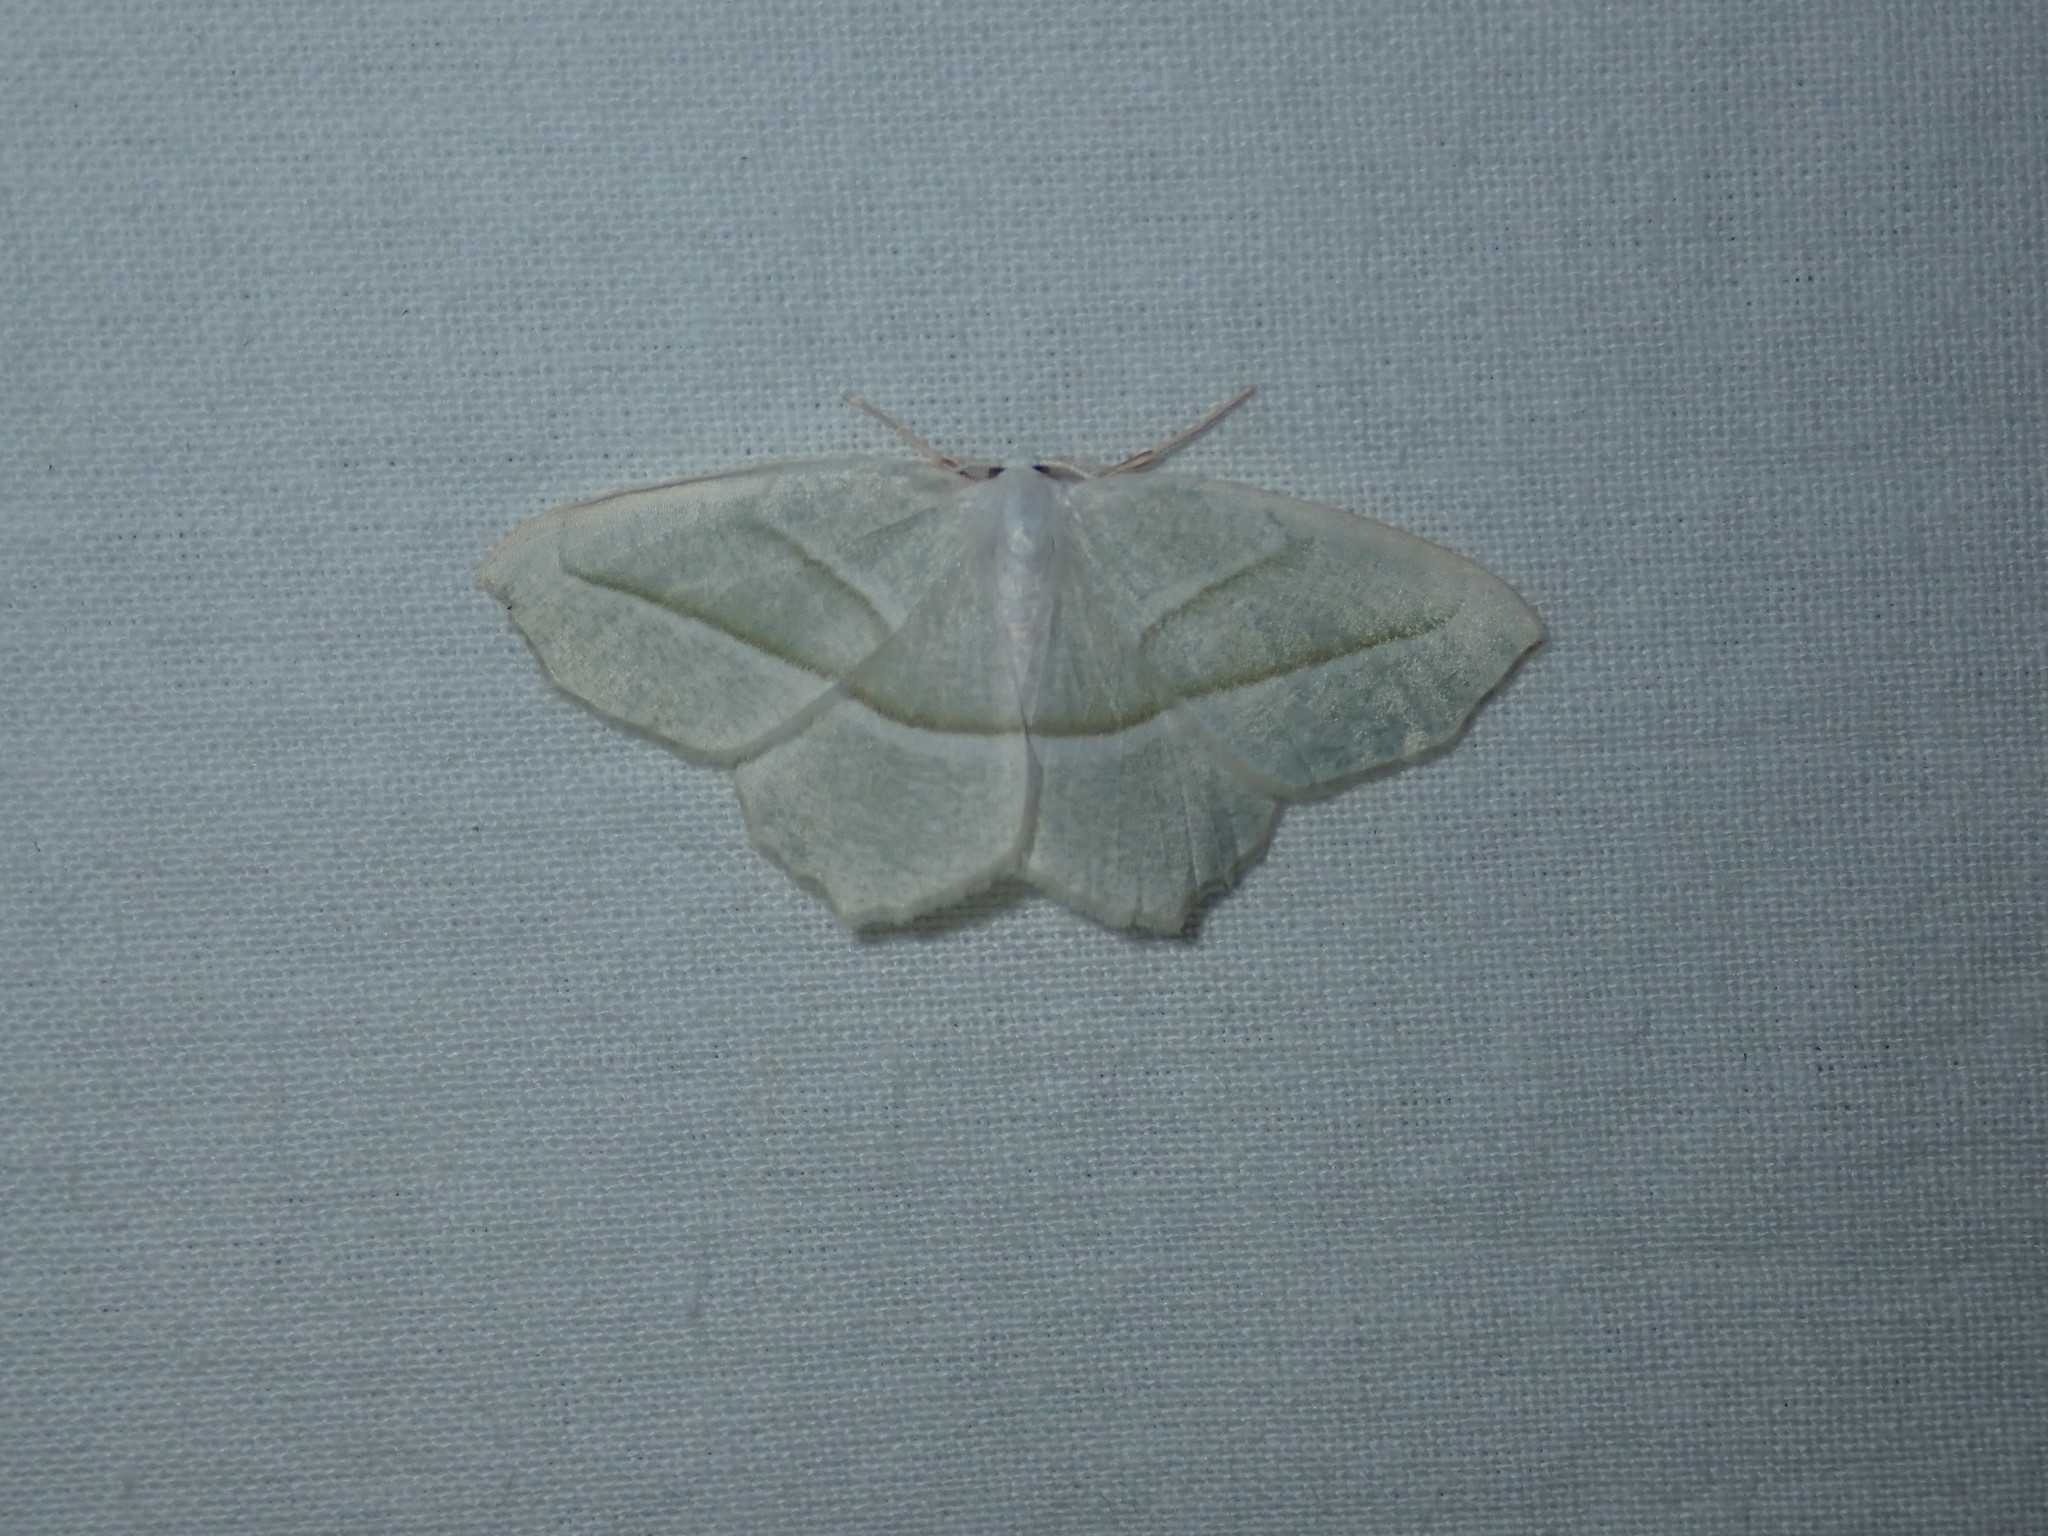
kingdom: Animalia
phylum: Arthropoda
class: Insecta
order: Lepidoptera
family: Geometridae
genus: Campaea
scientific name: Campaea perlata
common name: Fringed looper
